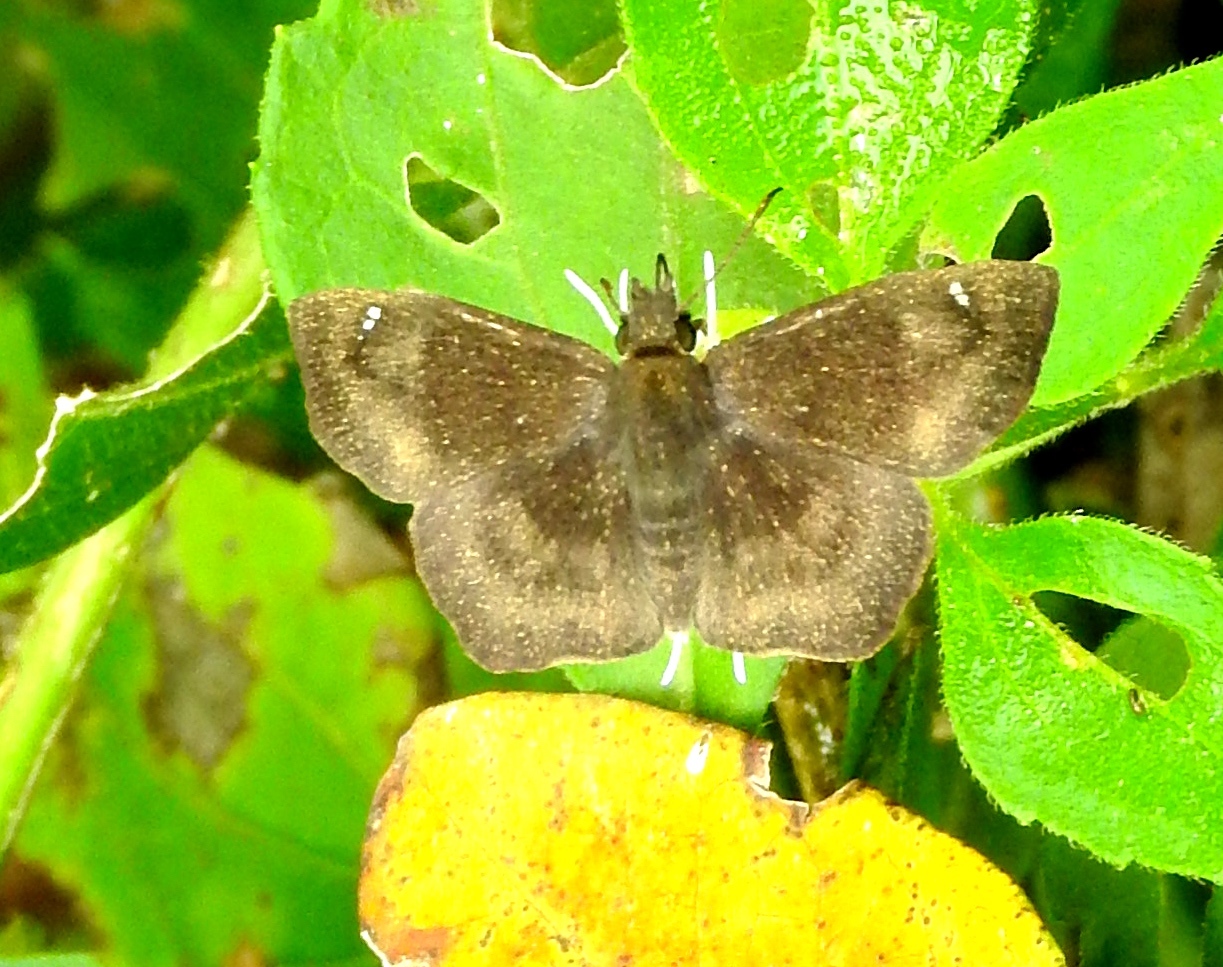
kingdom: Animalia
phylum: Arthropoda
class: Insecta
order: Lepidoptera
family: Hesperiidae
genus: Staphylus
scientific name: Staphylus
